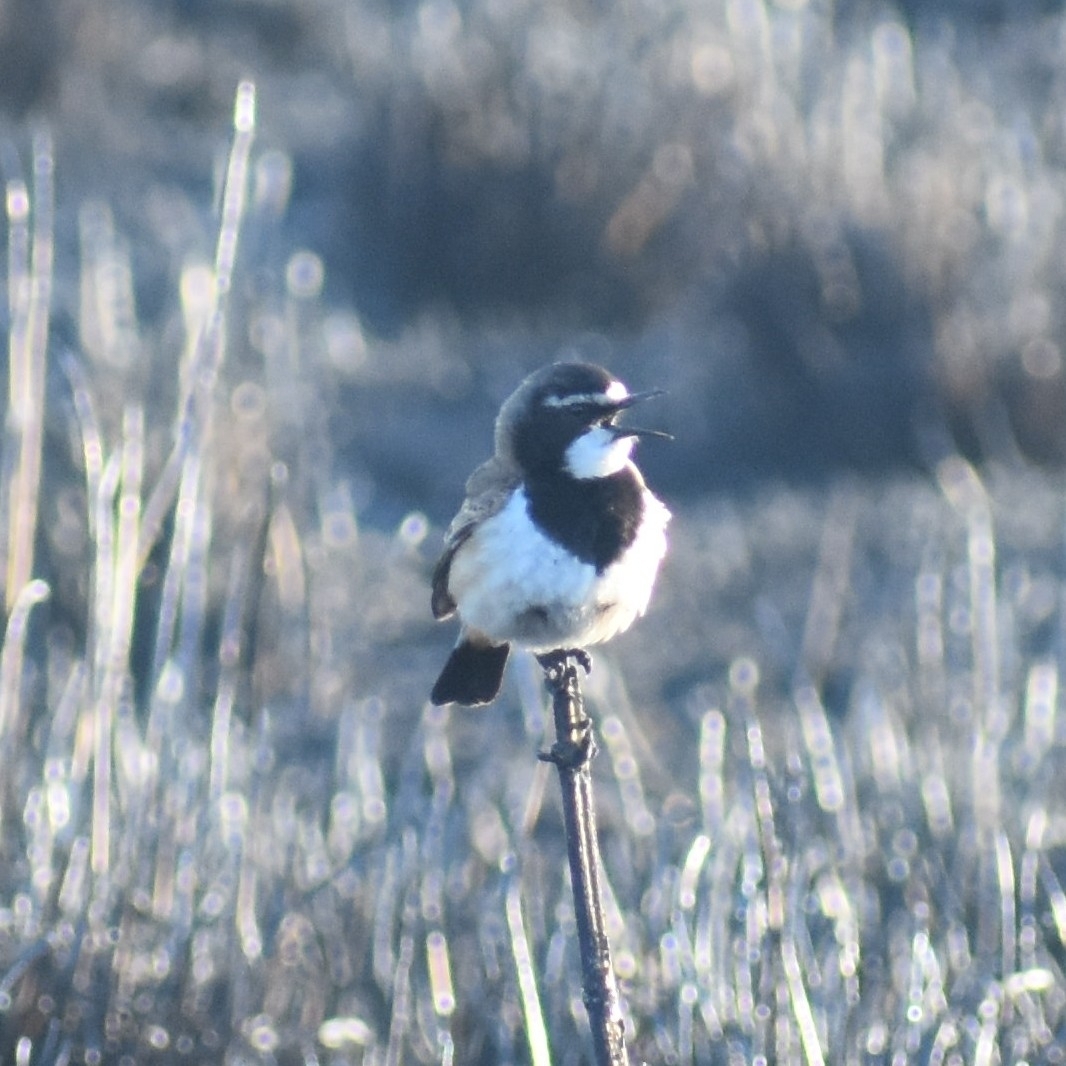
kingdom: Animalia
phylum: Chordata
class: Aves
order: Passeriformes
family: Muscicapidae
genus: Oenanthe
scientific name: Oenanthe pileata
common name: Capped wheatear
